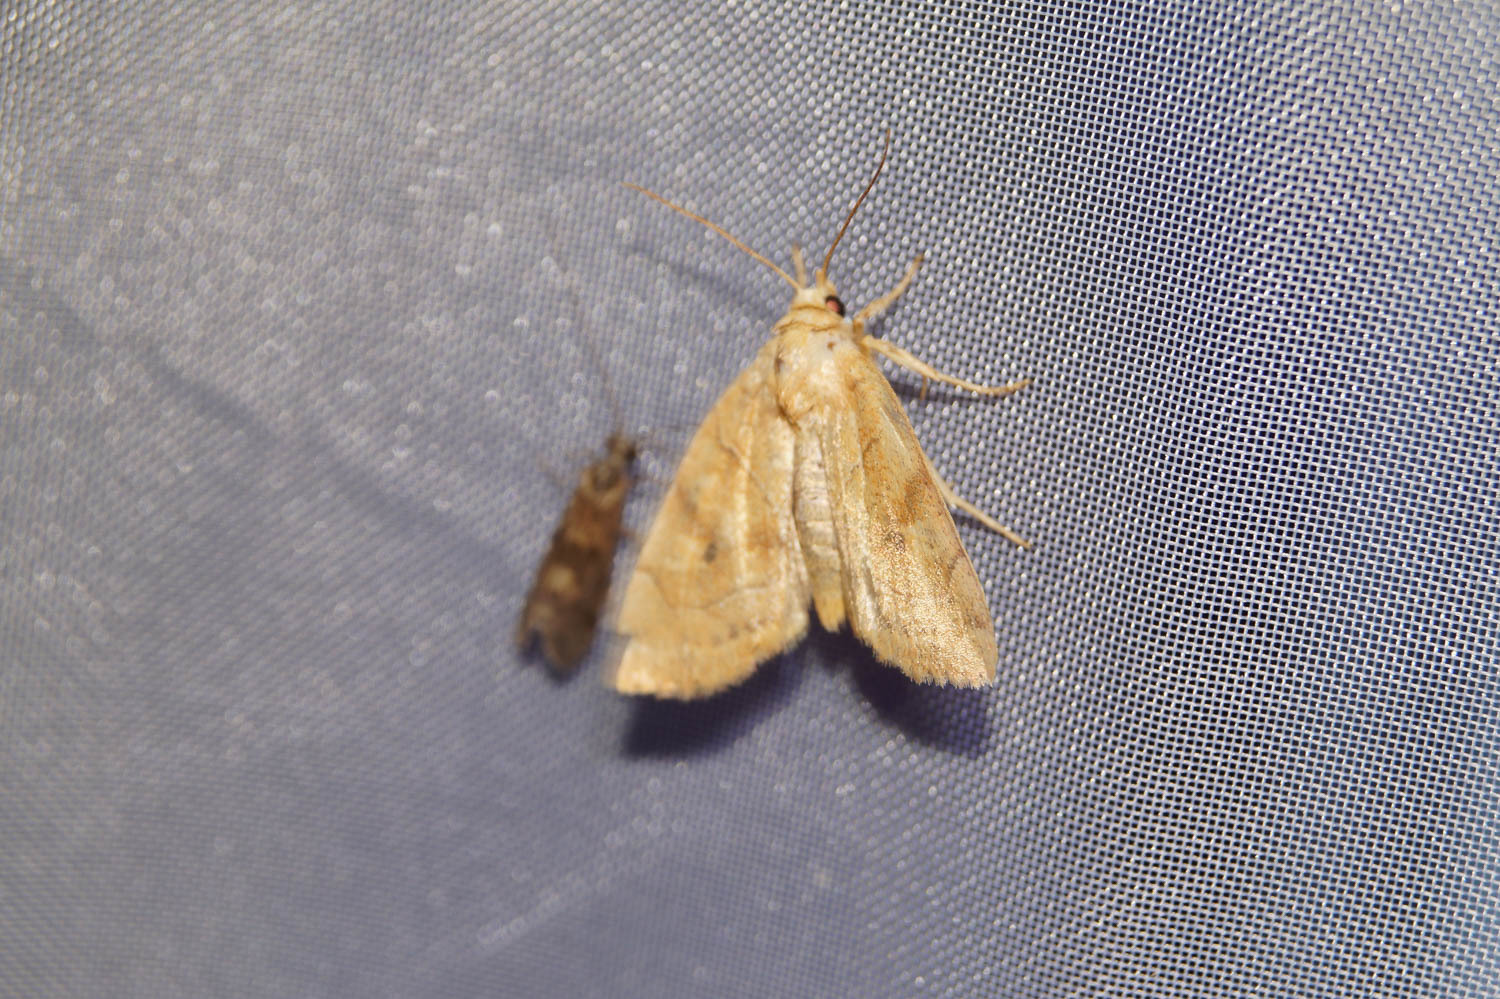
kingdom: Animalia
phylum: Arthropoda
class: Insecta
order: Lepidoptera
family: Noctuidae
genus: Cosmia
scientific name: Cosmia trapezina
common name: Dun-bar
